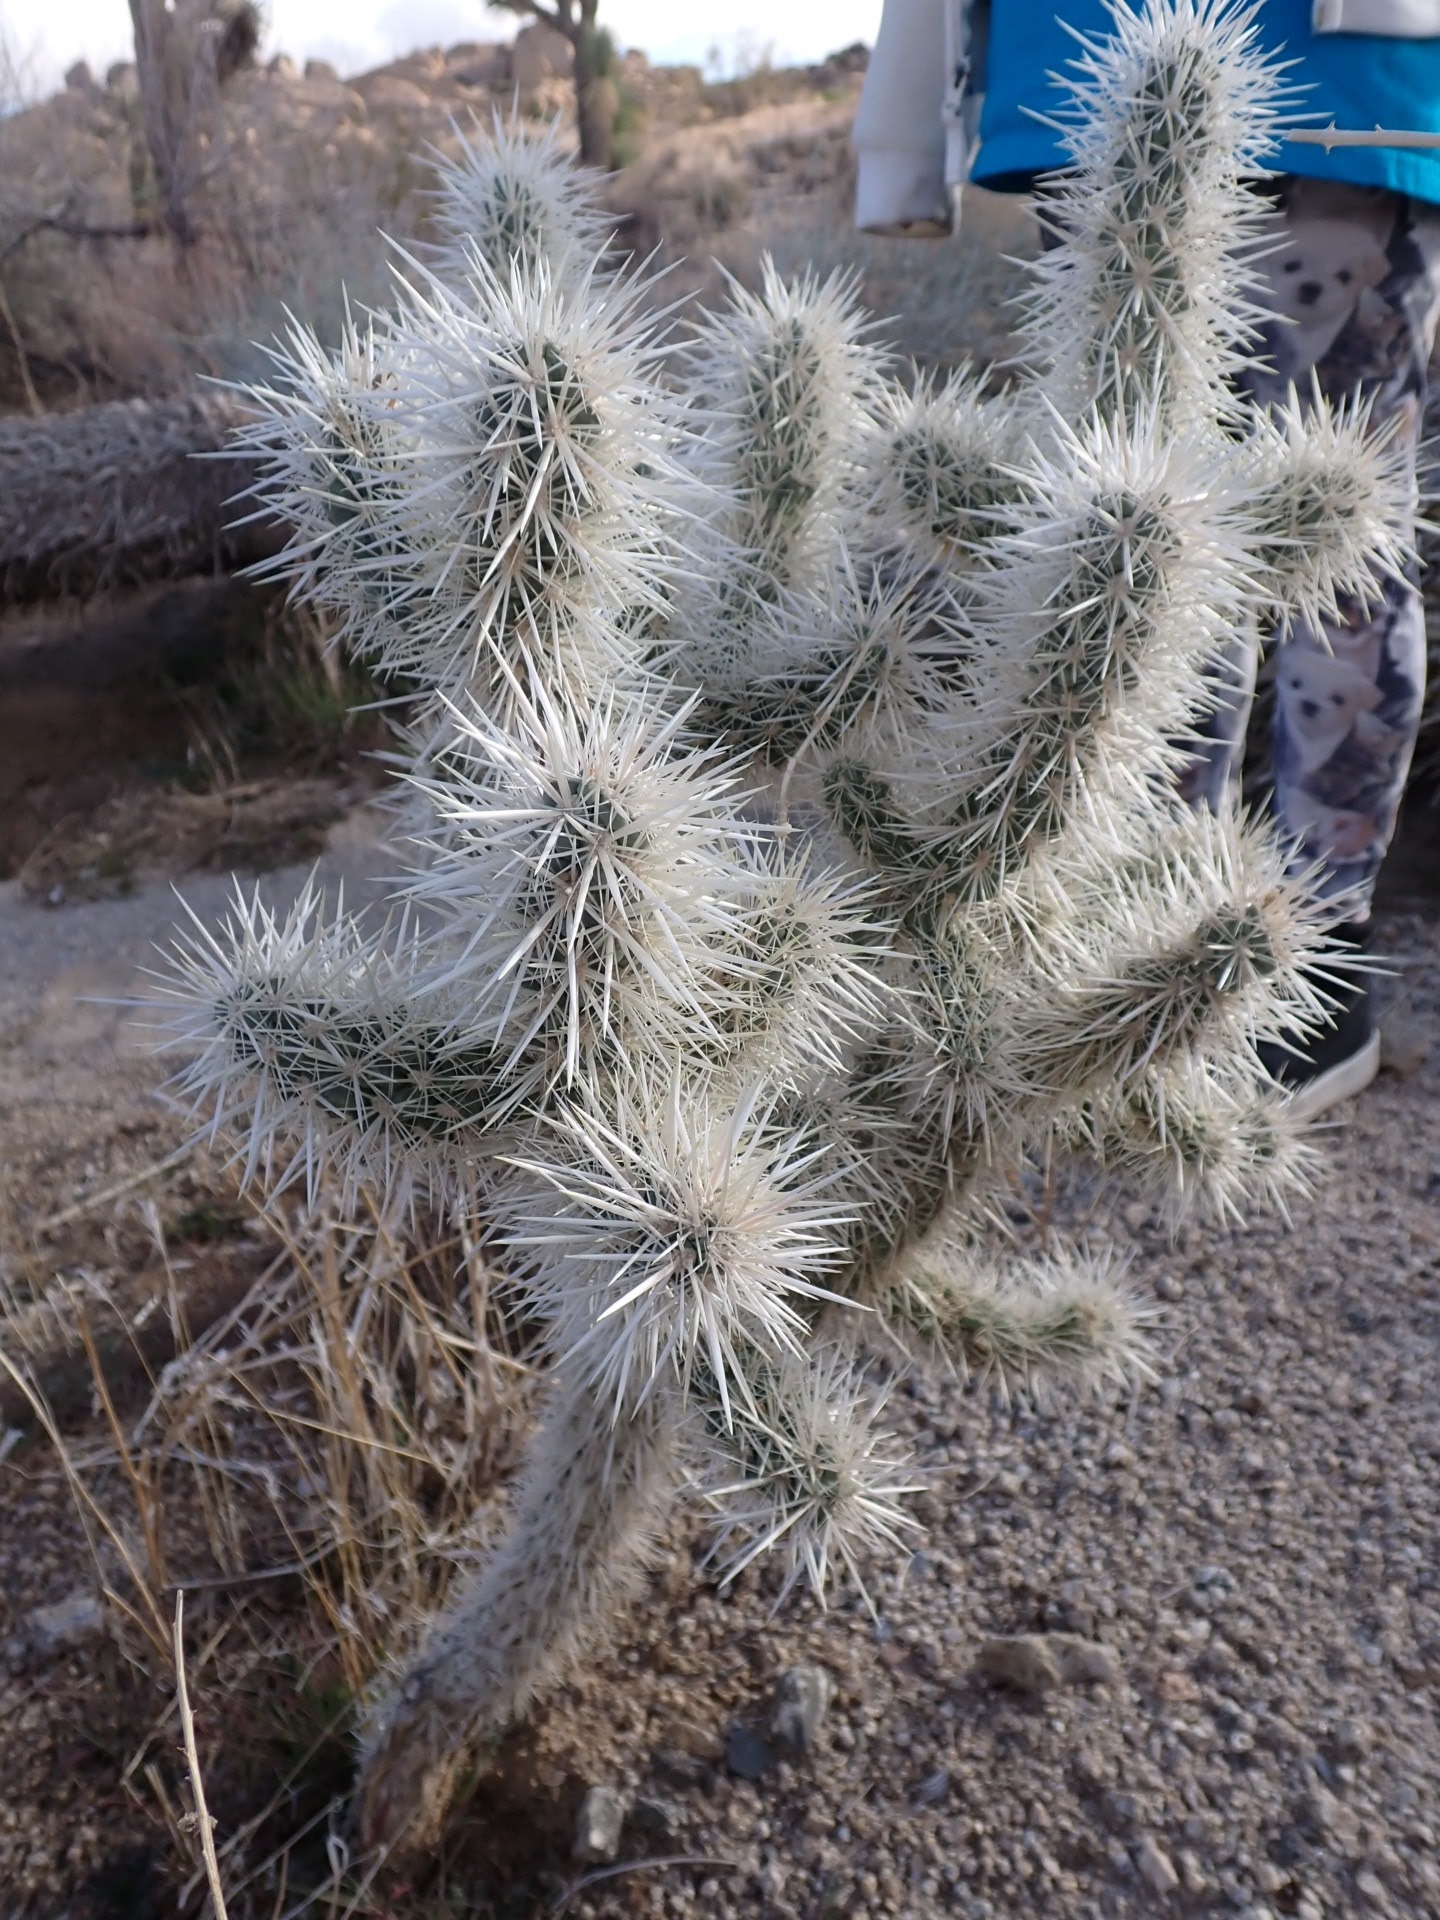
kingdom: Plantae
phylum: Tracheophyta
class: Magnoliopsida
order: Caryophyllales
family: Cactaceae
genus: Cylindropuntia
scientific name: Cylindropuntia echinocarpa
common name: Ground cholla
